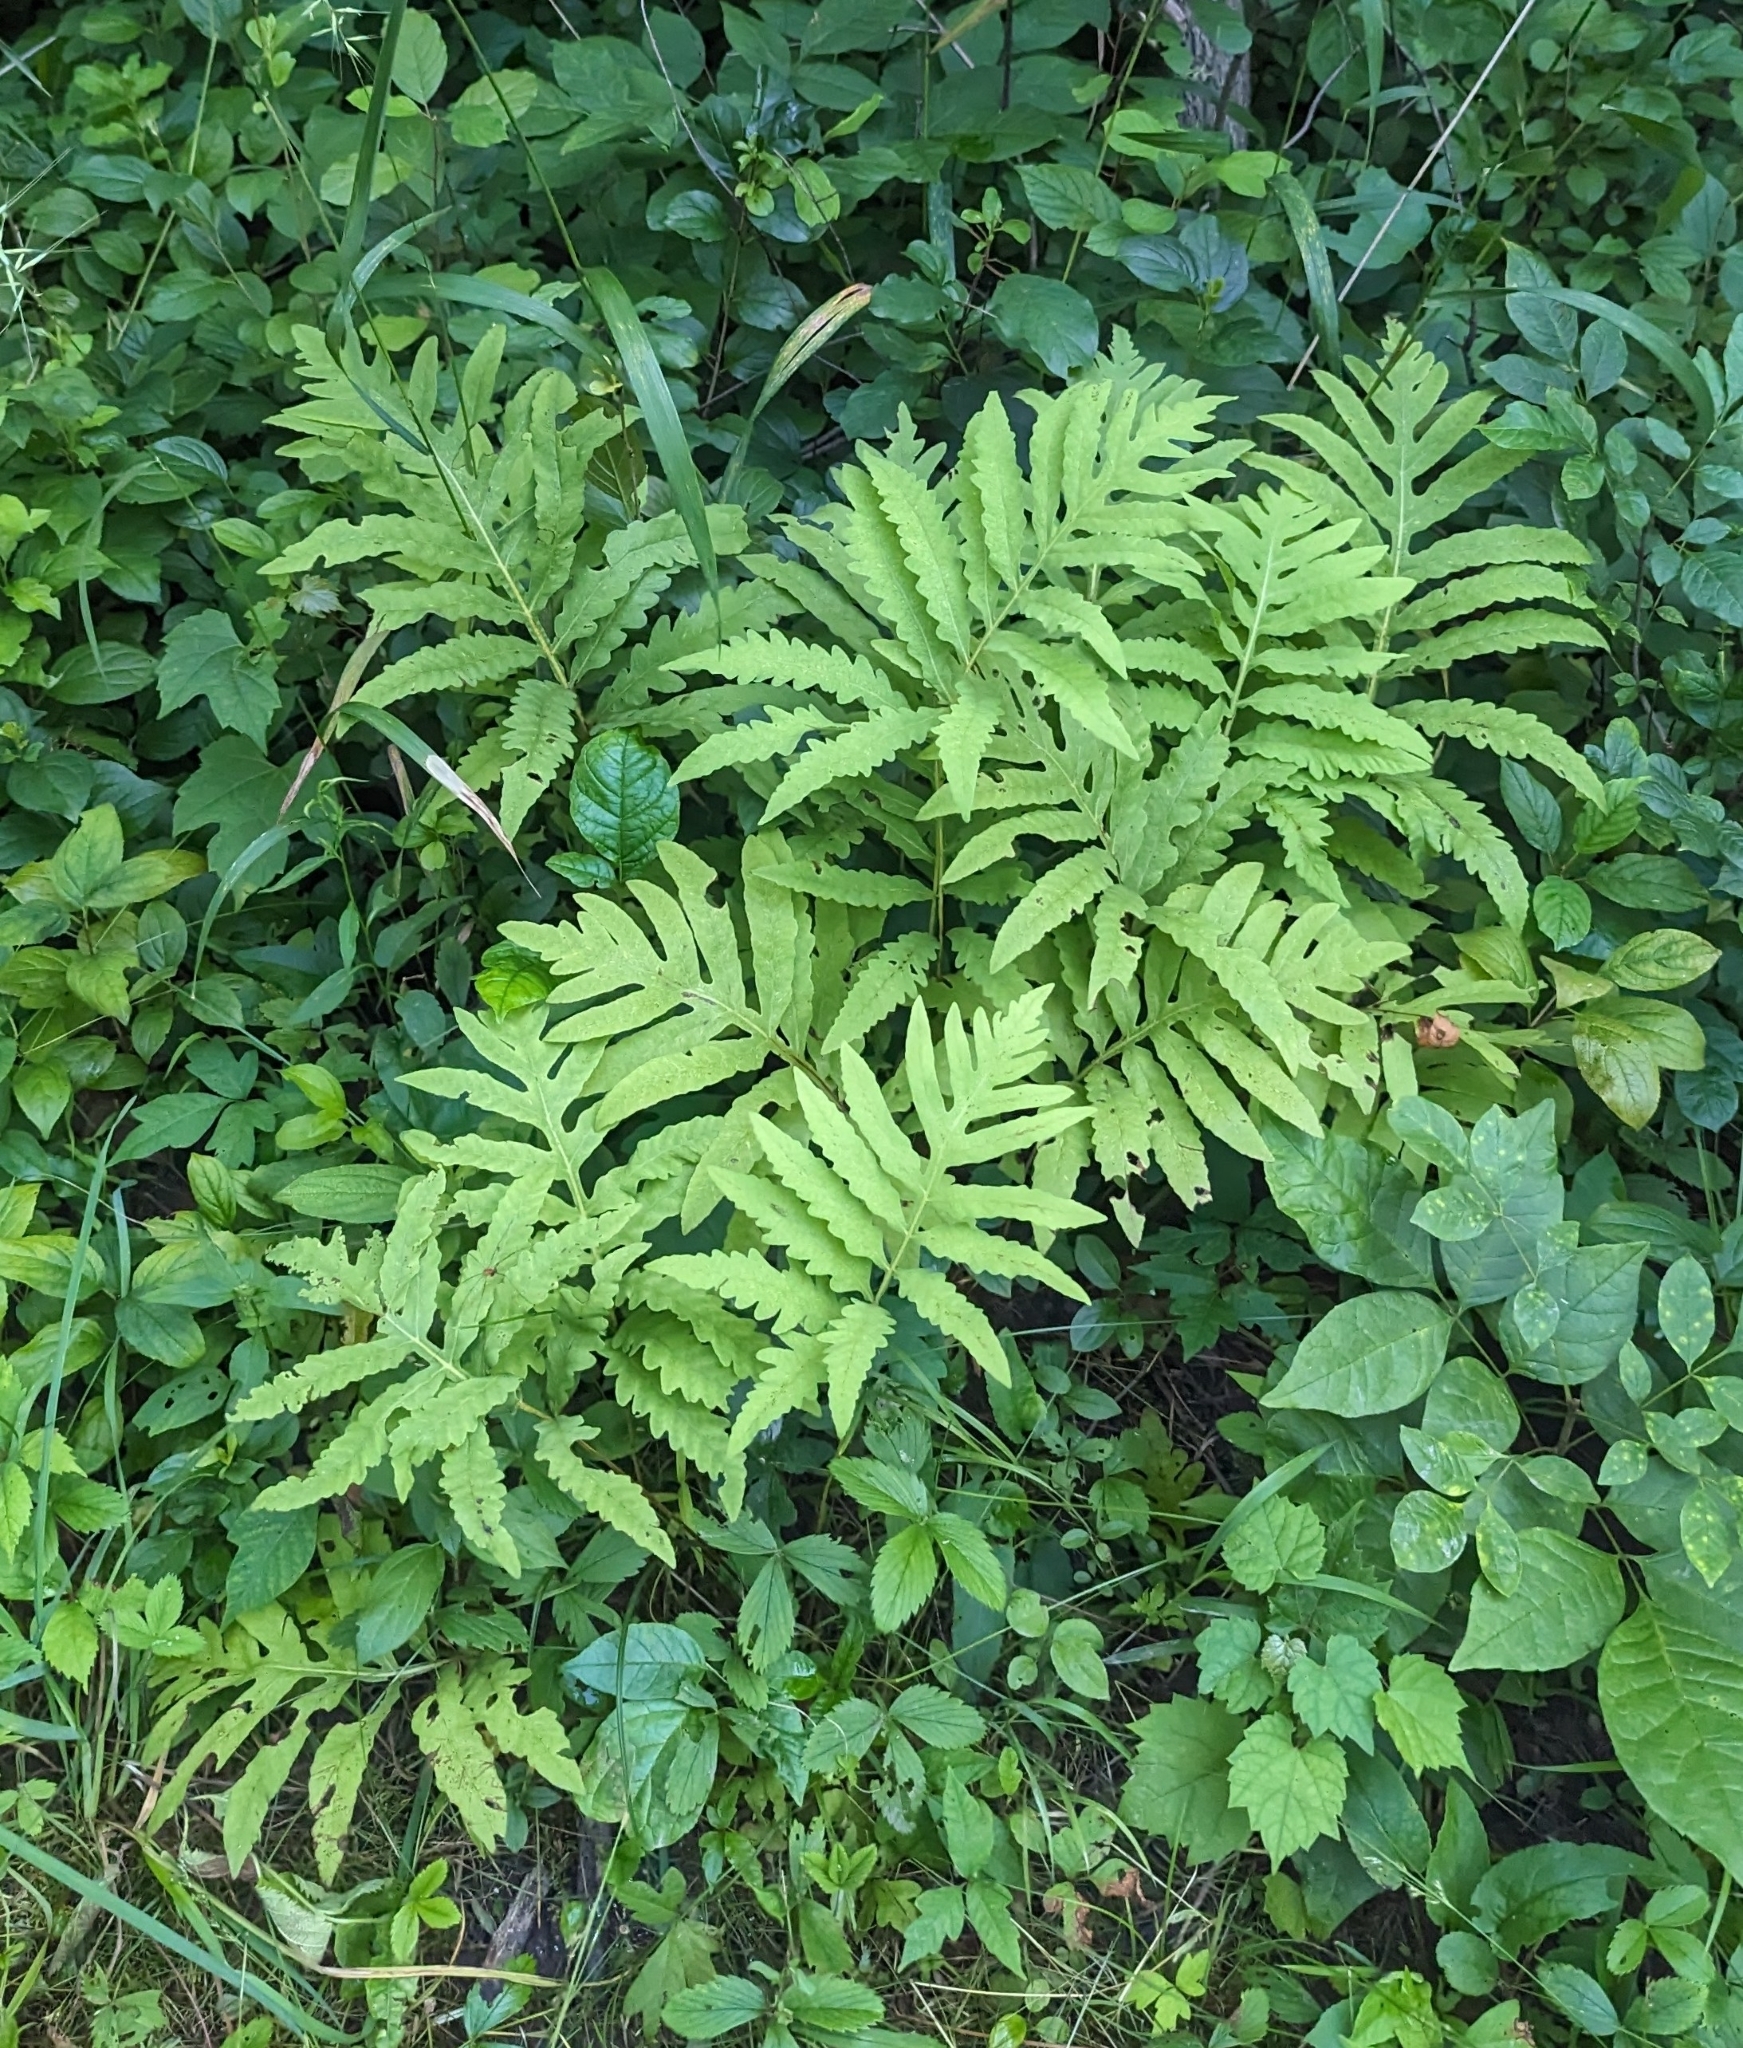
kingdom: Plantae
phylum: Tracheophyta
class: Polypodiopsida
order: Polypodiales
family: Onocleaceae
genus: Onoclea
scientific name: Onoclea sensibilis
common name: Sensitive fern
